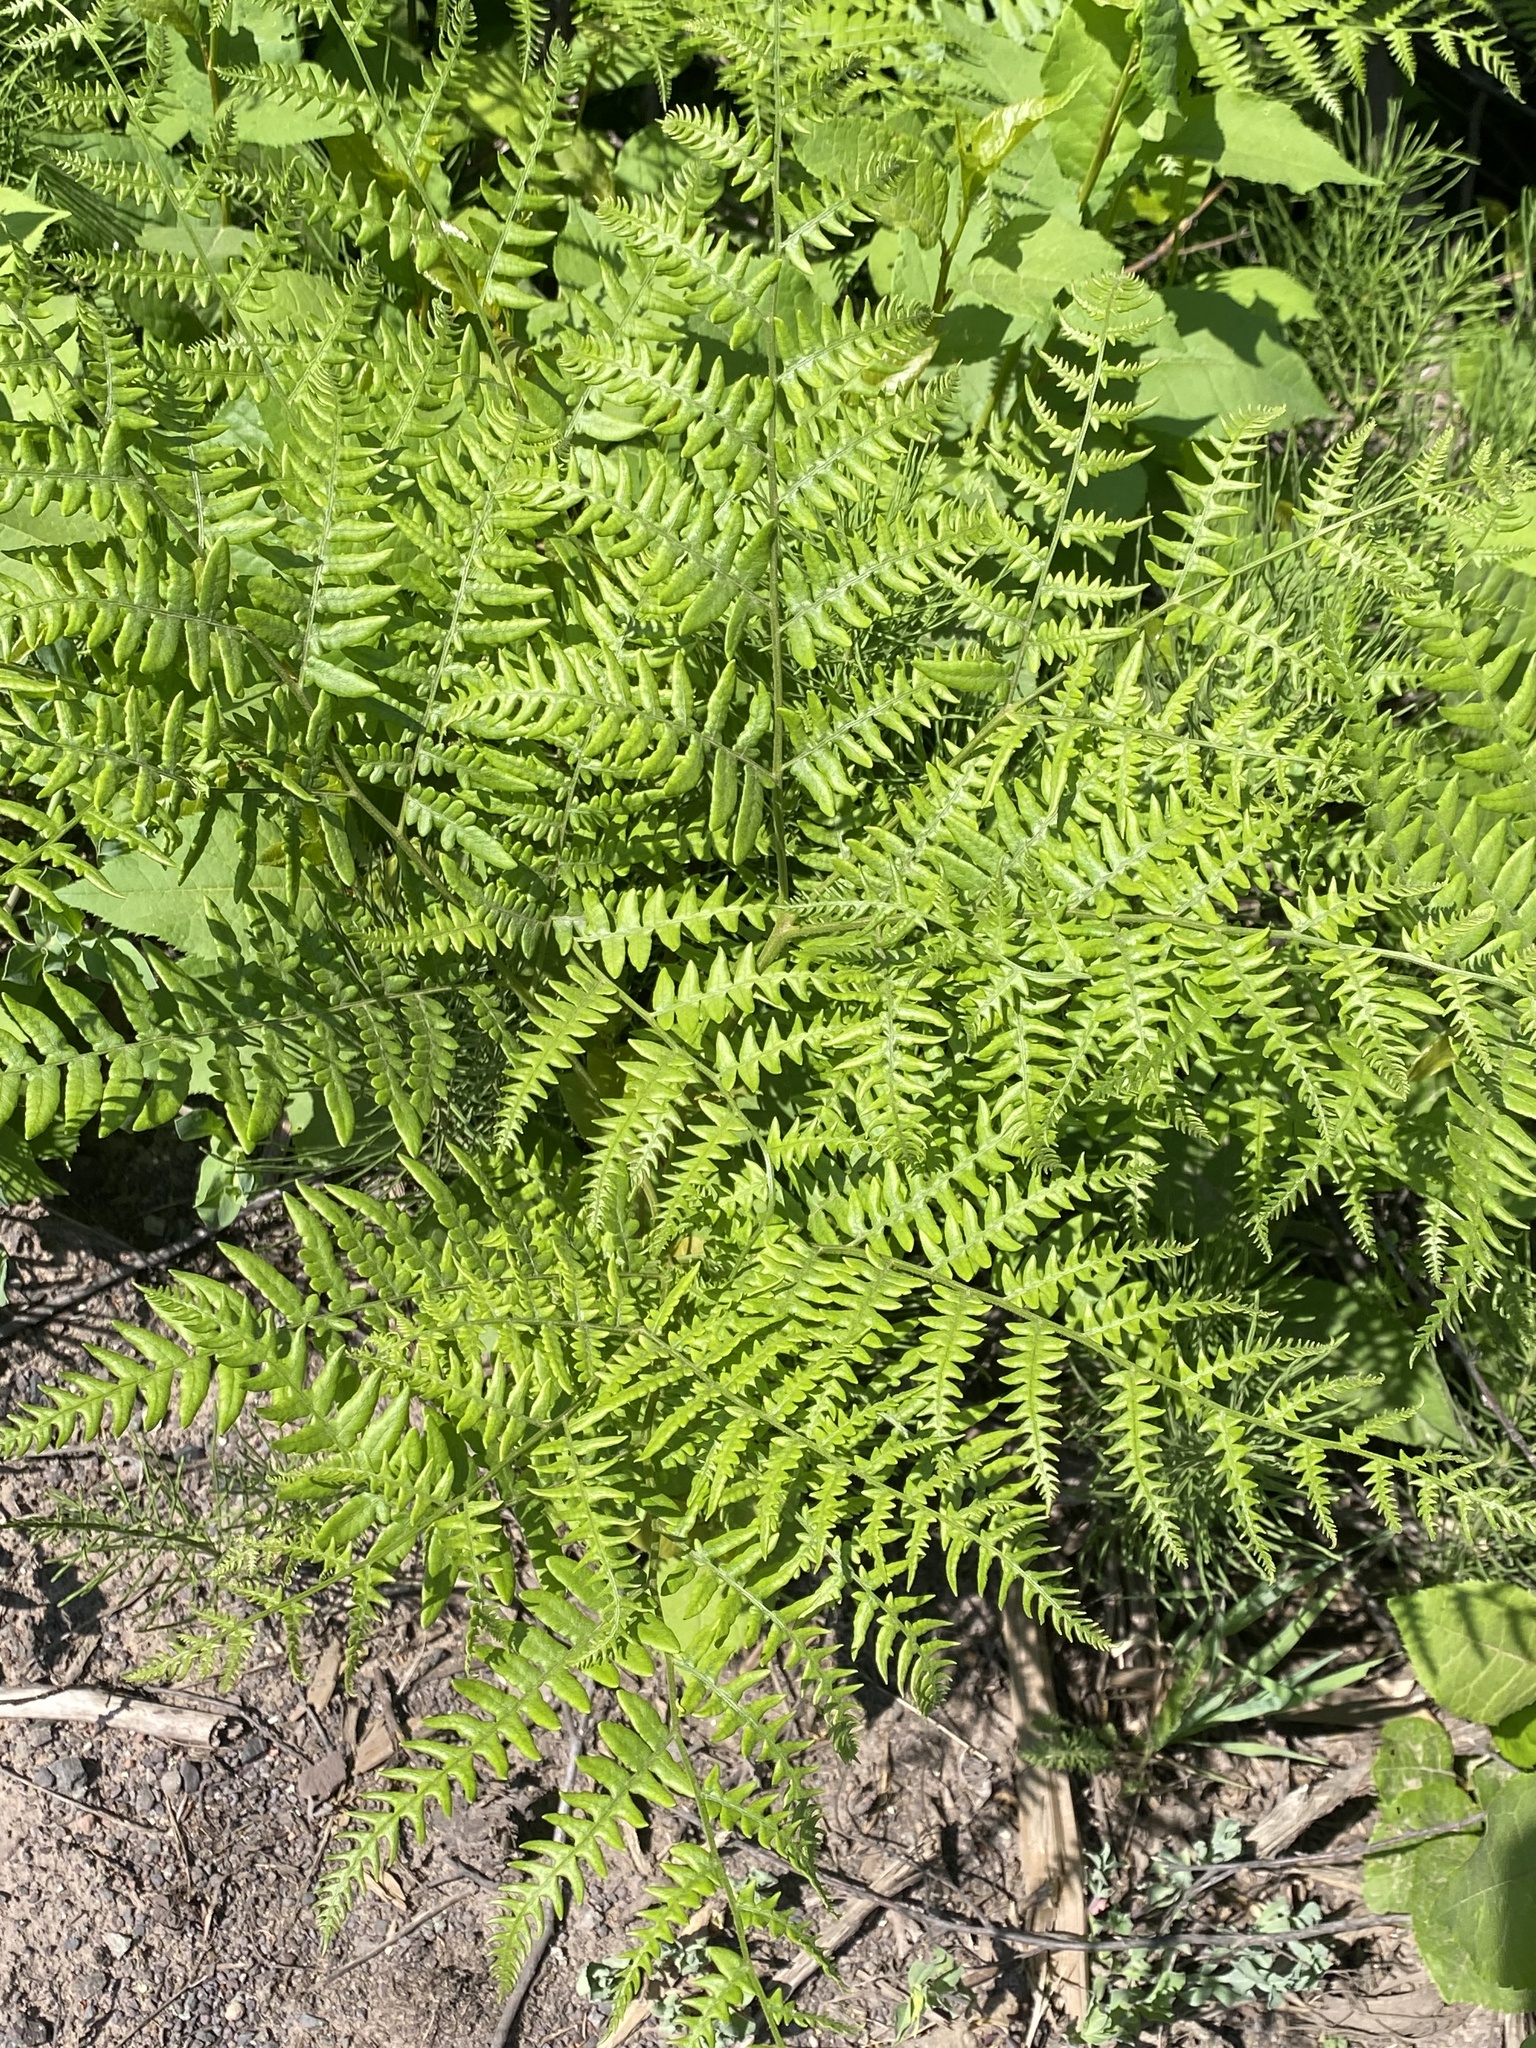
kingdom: Plantae
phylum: Tracheophyta
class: Polypodiopsida
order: Polypodiales
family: Dennstaedtiaceae
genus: Pteridium
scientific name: Pteridium aquilinum
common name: Bracken
